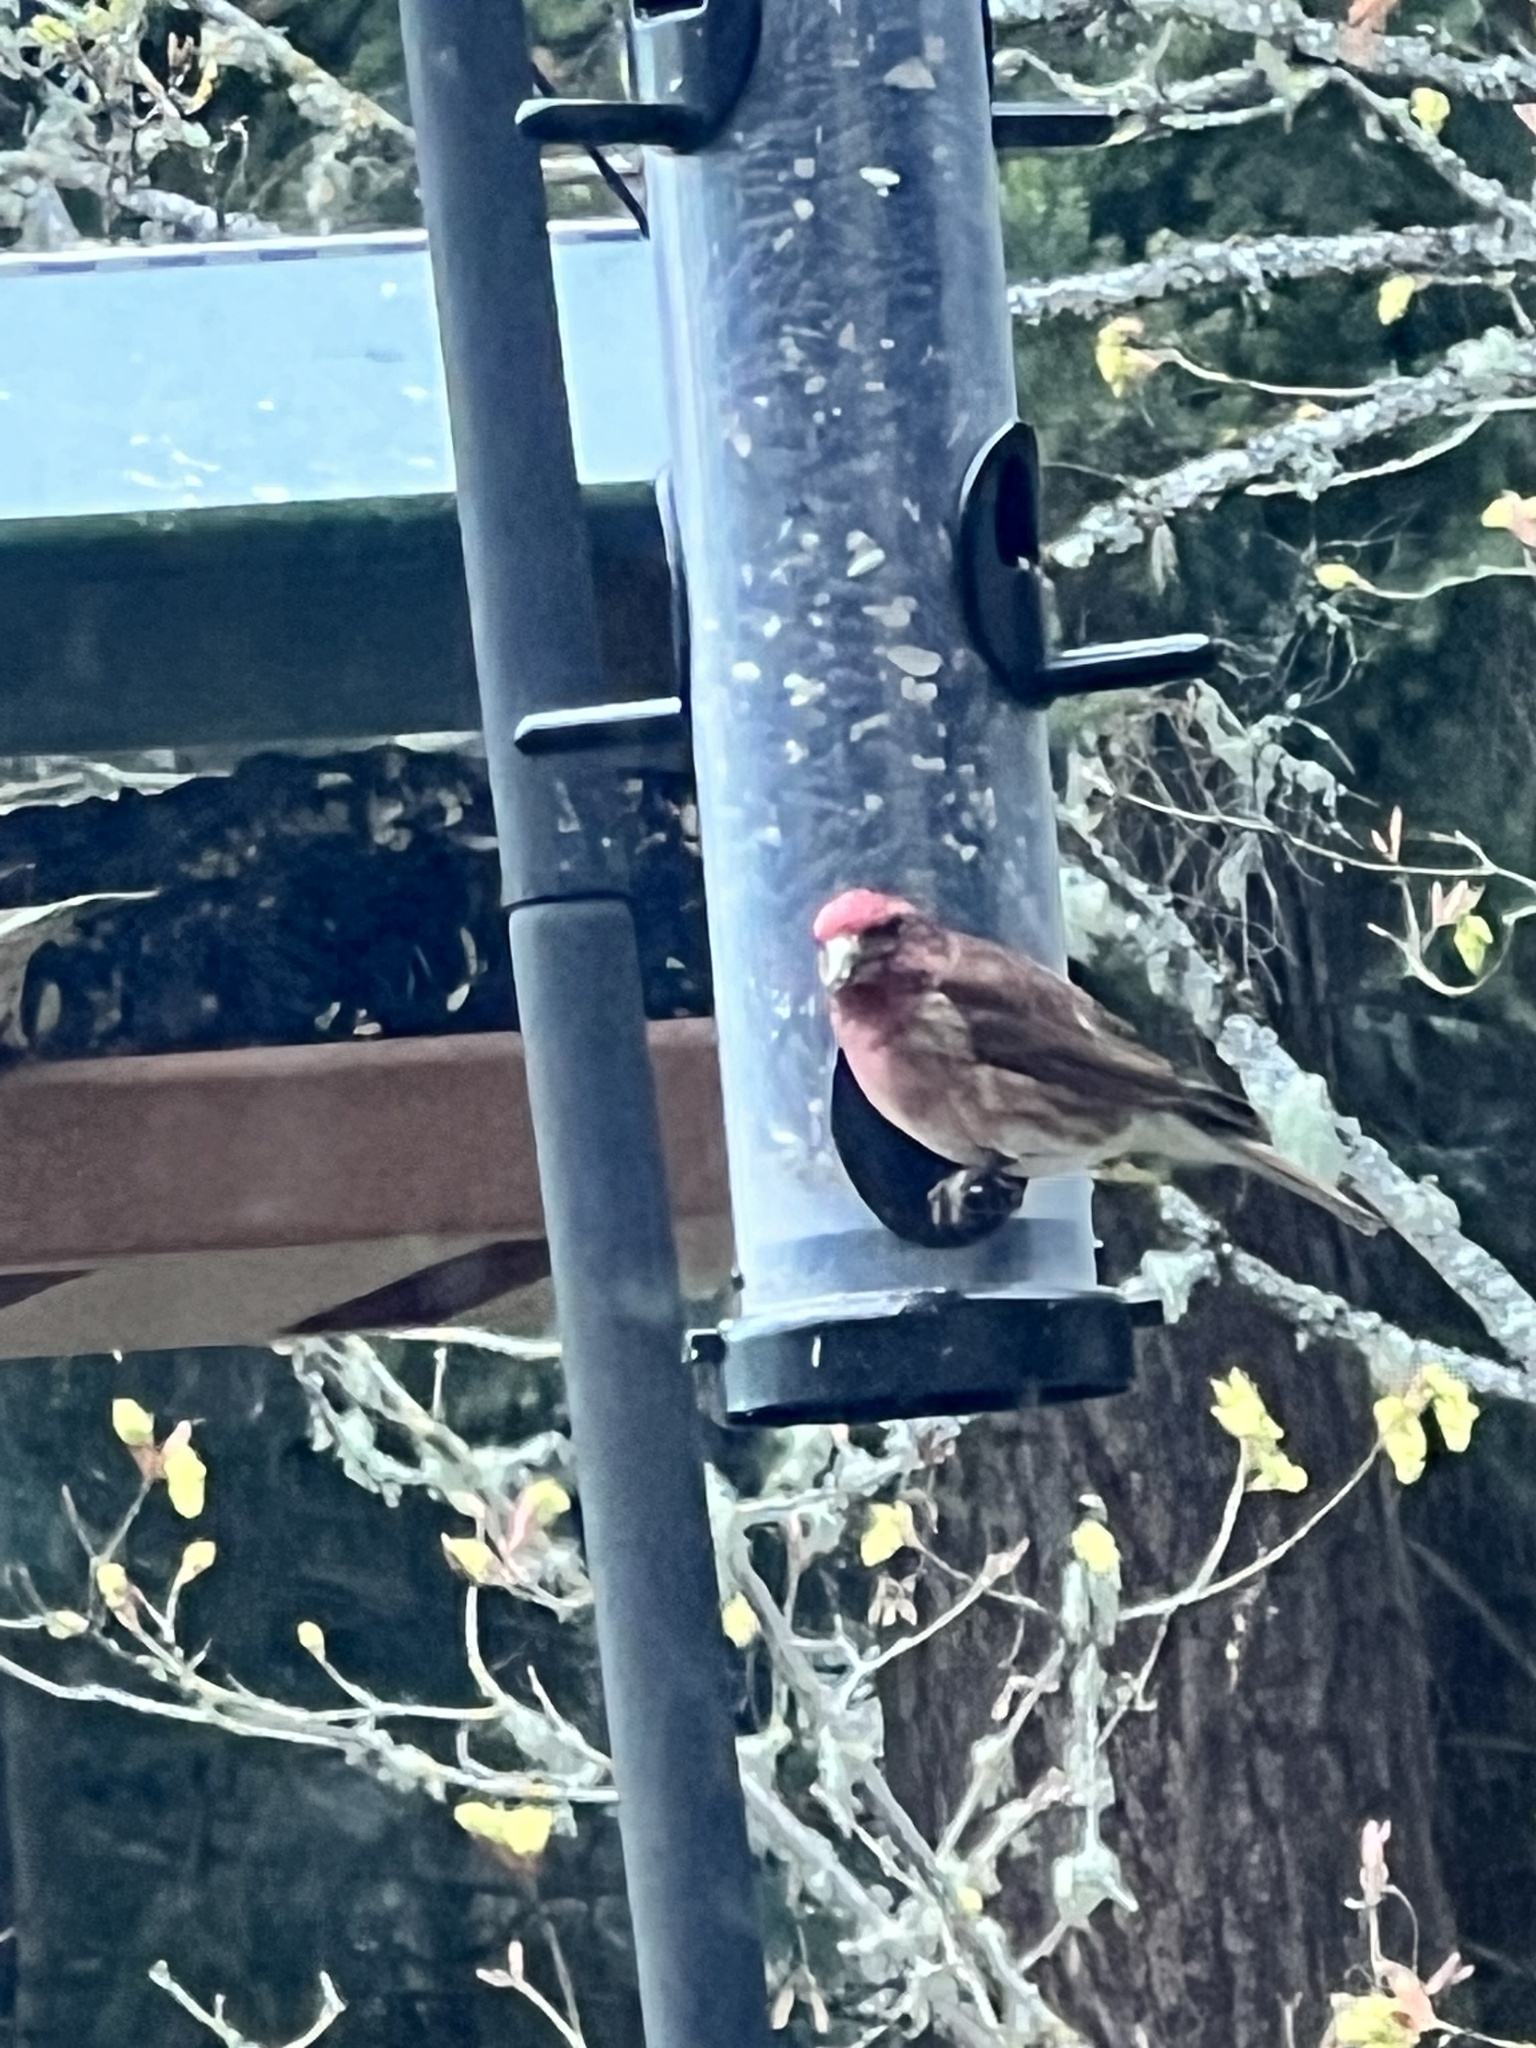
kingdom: Animalia
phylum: Chordata
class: Aves
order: Passeriformes
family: Fringillidae
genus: Haemorhous
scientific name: Haemorhous purpureus
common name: Purple finch
